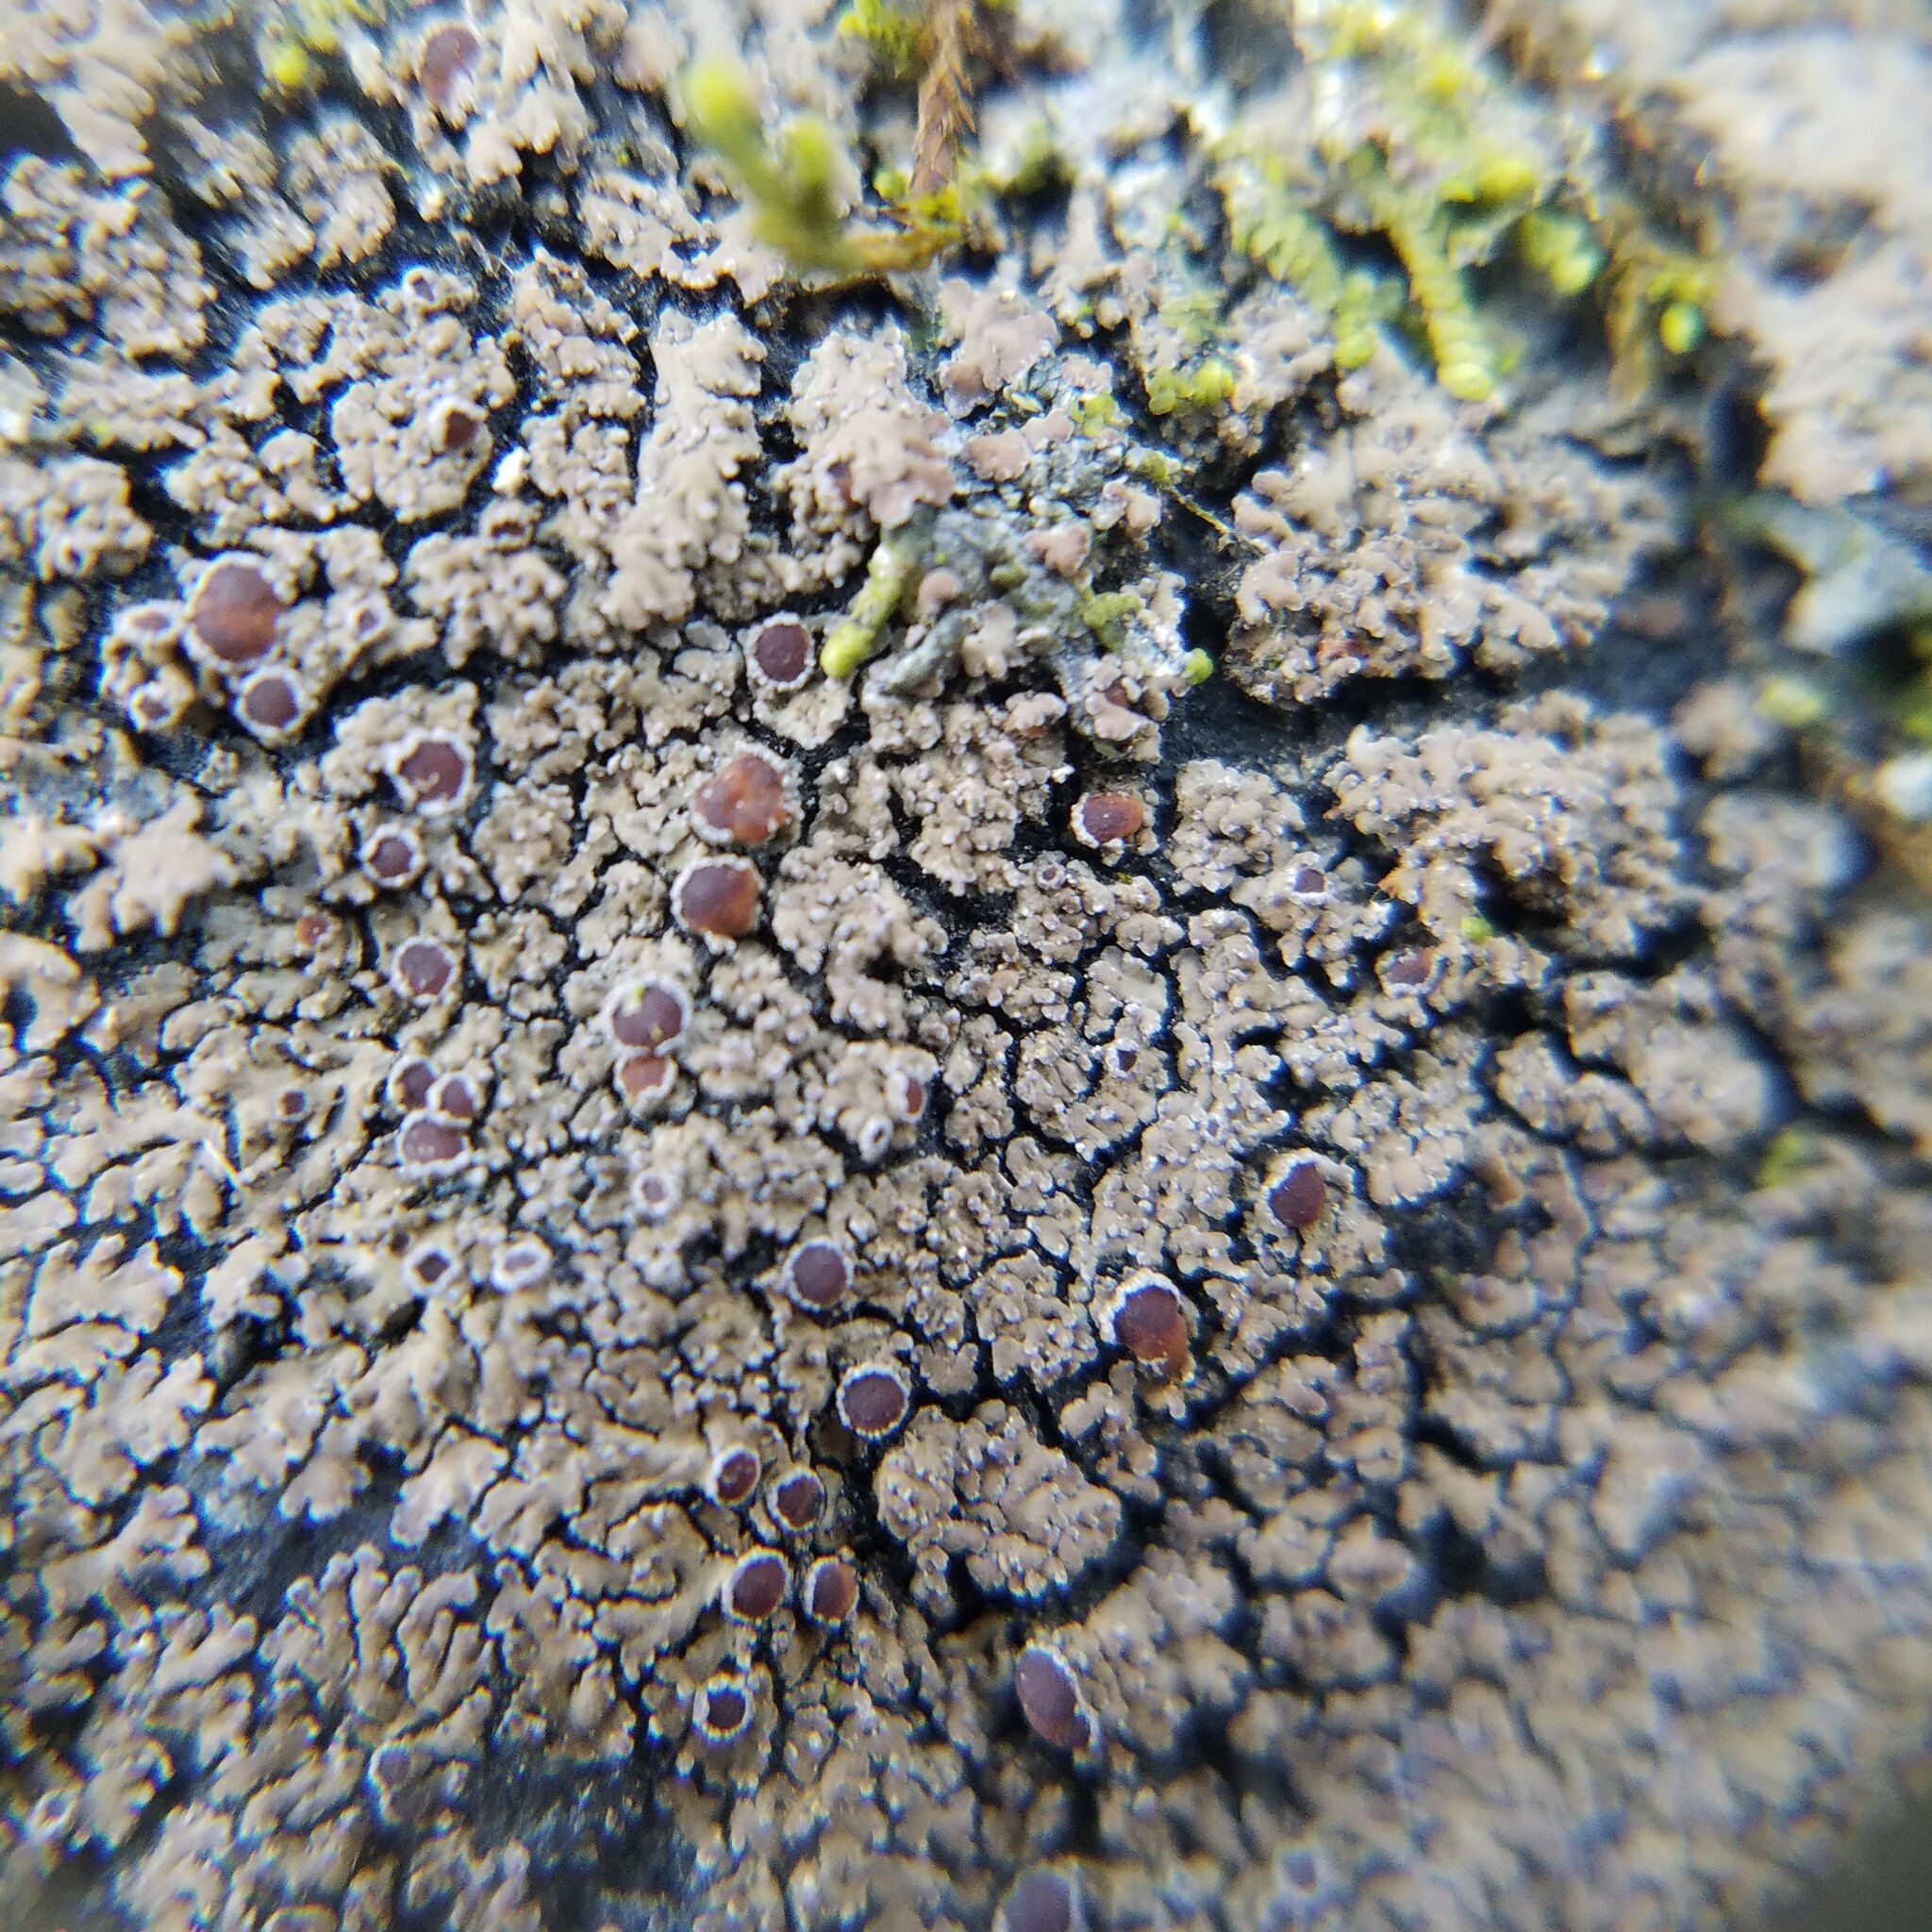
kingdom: Fungi
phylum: Ascomycota
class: Lecanoromycetes
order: Peltigerales
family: Pannariaceae
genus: Fuscopannaria
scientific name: Fuscopannaria leucosticta
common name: Rimmed shingle lichen
